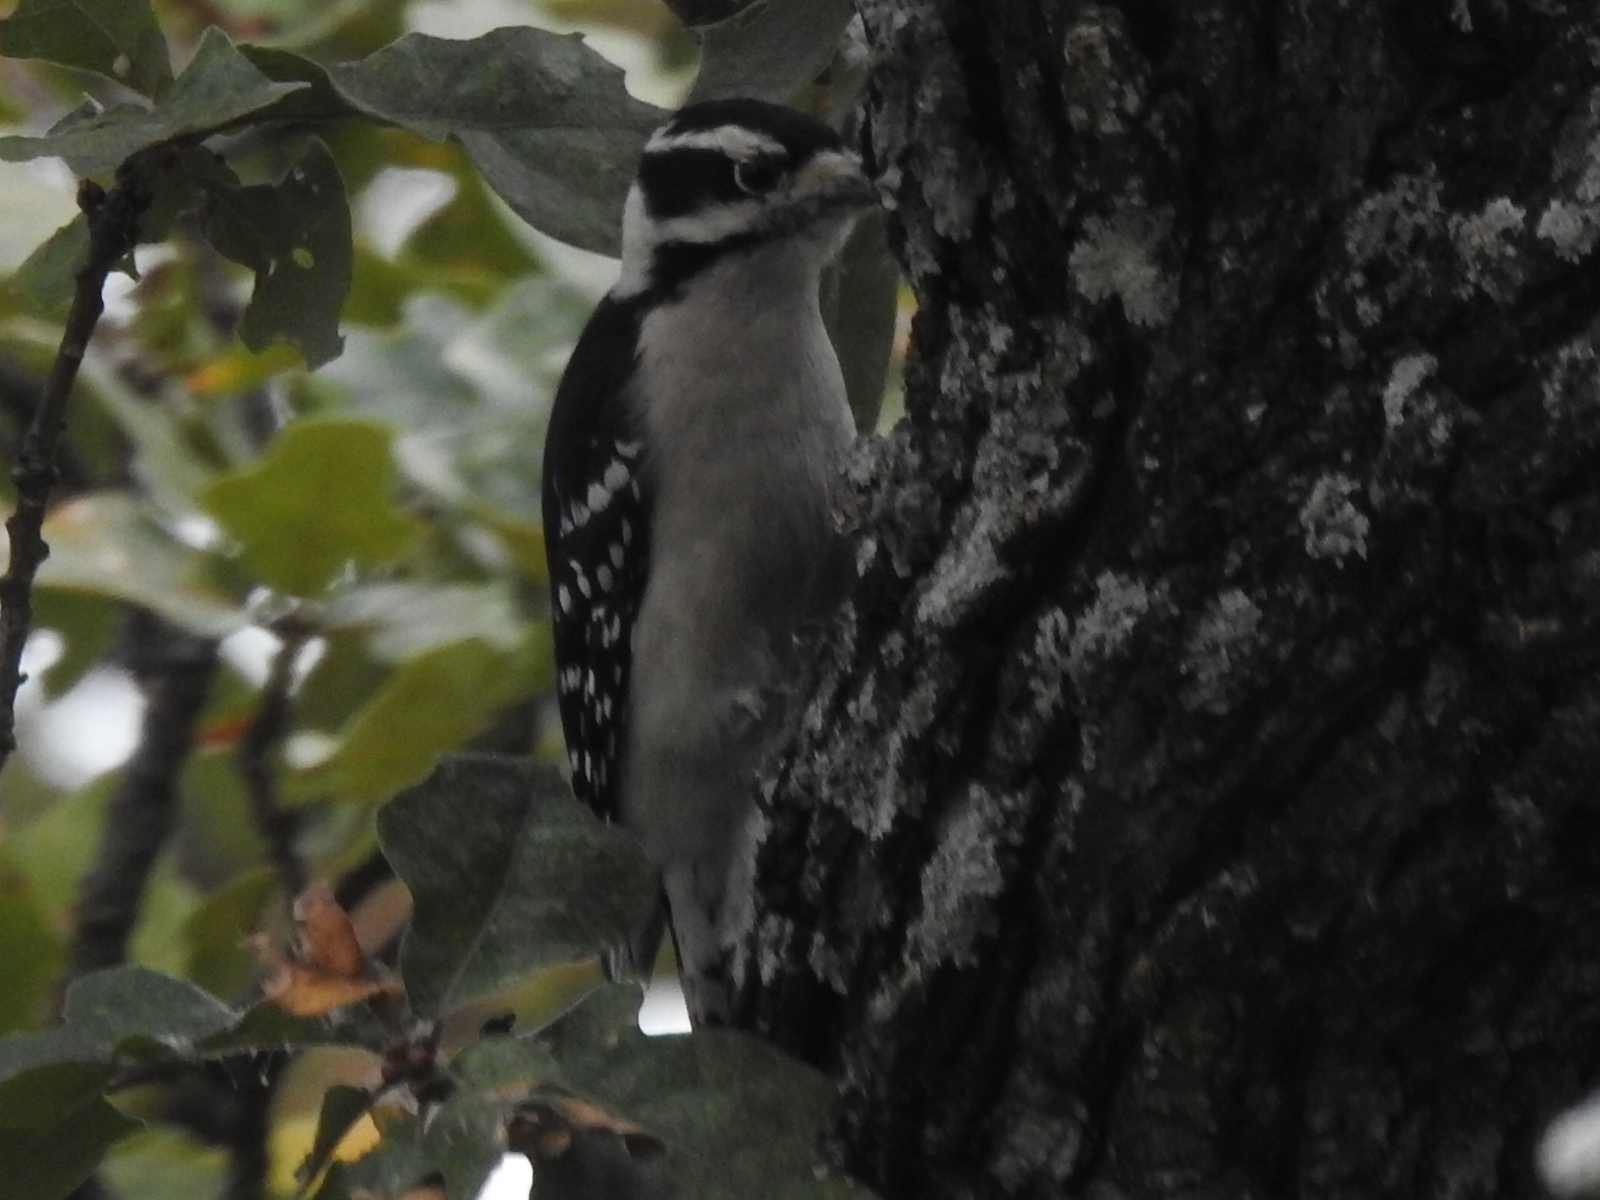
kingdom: Animalia
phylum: Chordata
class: Aves
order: Piciformes
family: Picidae
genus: Dryobates
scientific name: Dryobates pubescens
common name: Downy woodpecker
